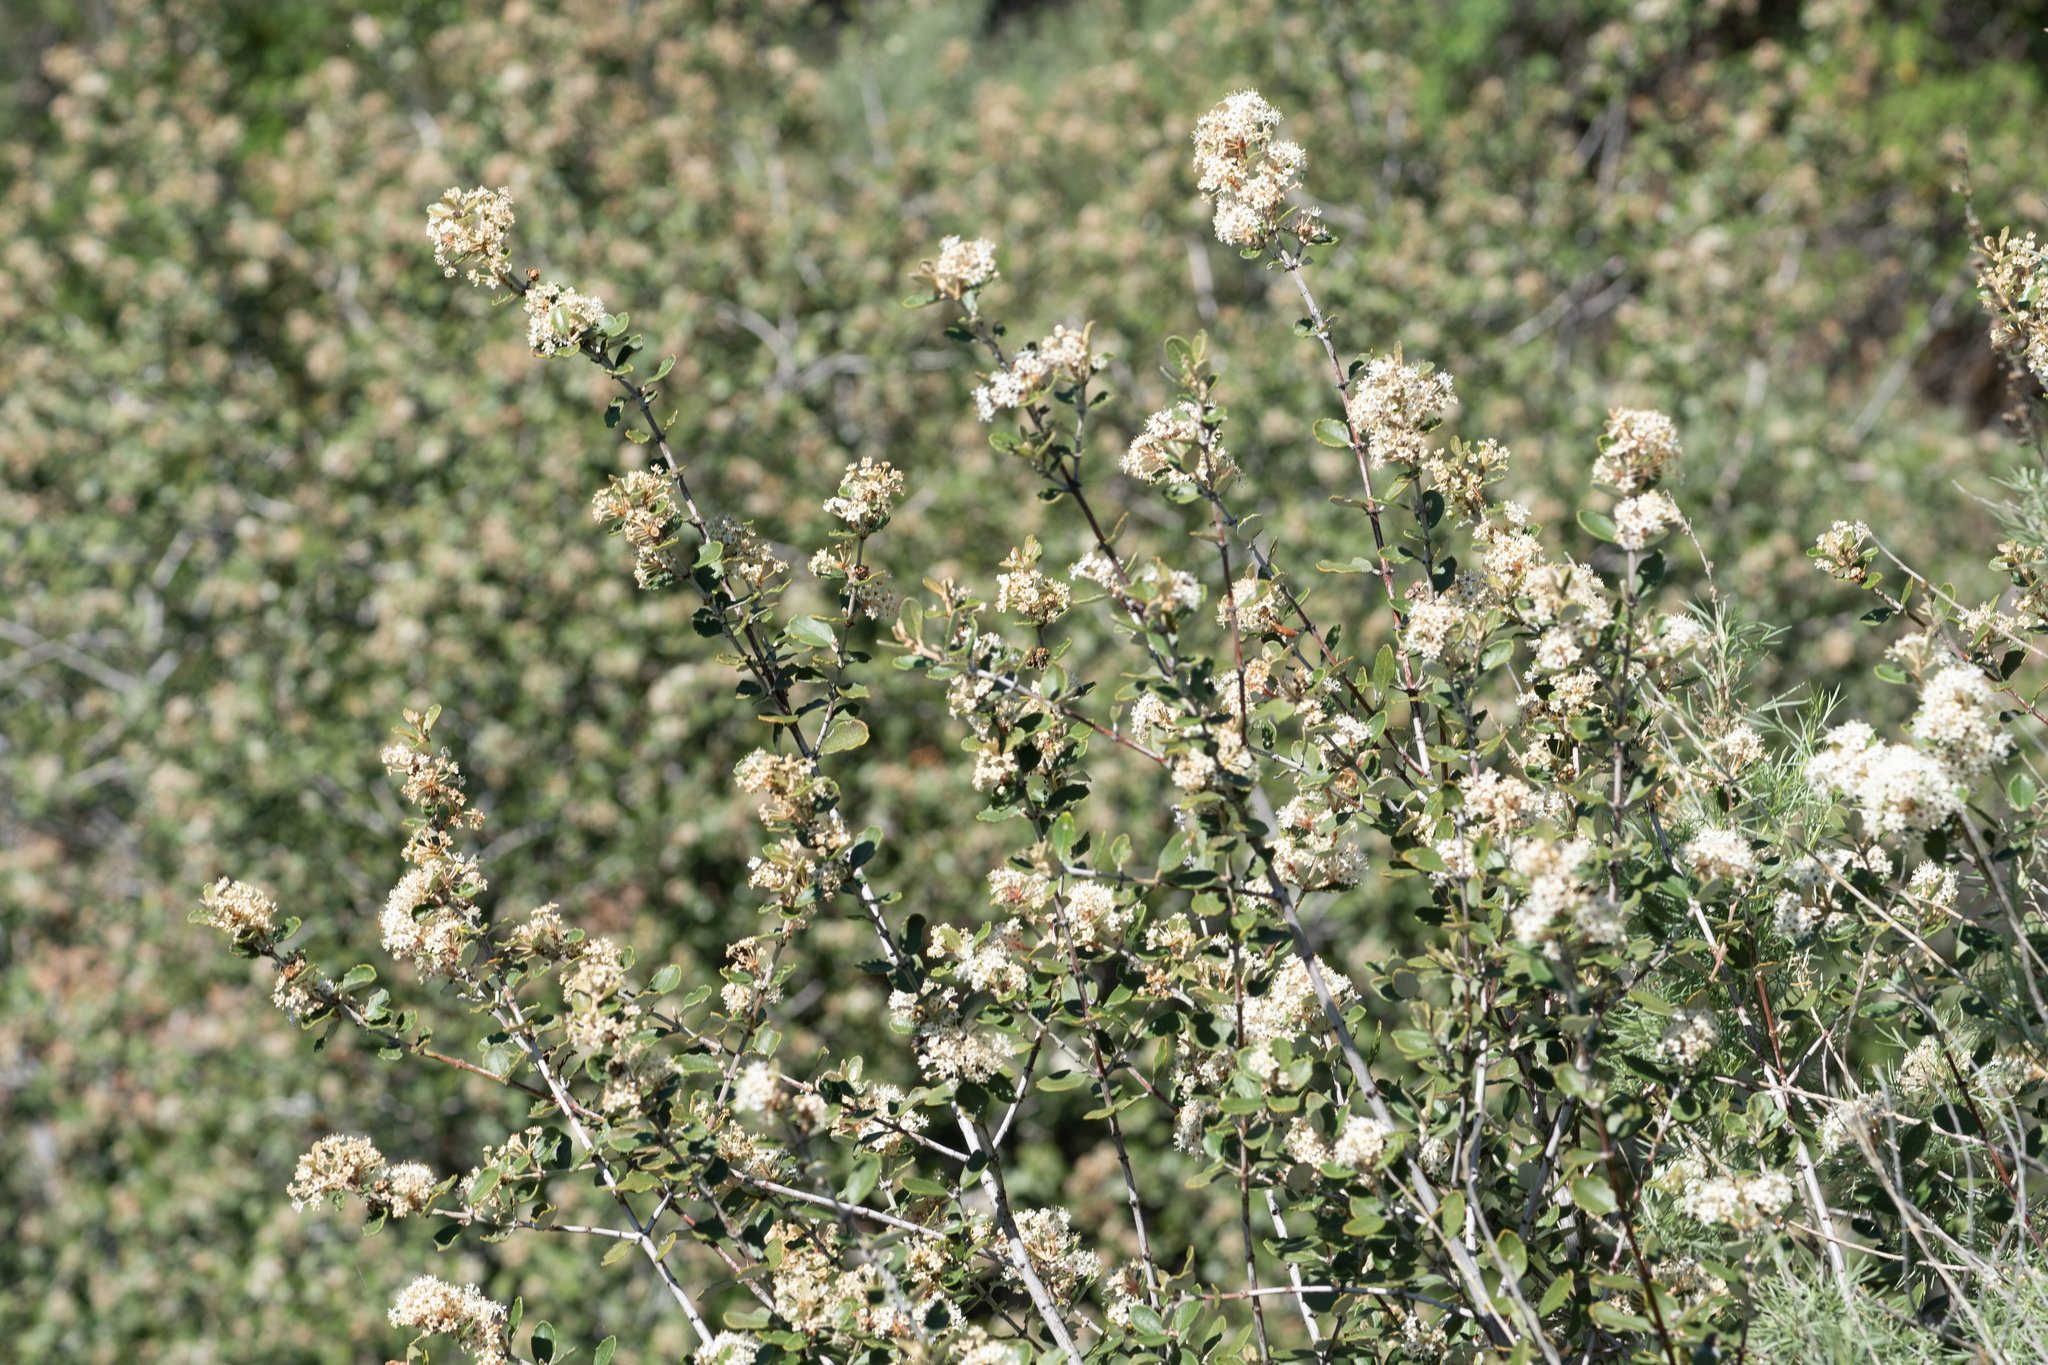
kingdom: Plantae
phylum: Tracheophyta
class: Magnoliopsida
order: Rosales
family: Rhamnaceae
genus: Ceanothus
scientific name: Ceanothus crassifolius
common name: Hoaryleaf ceanothus
